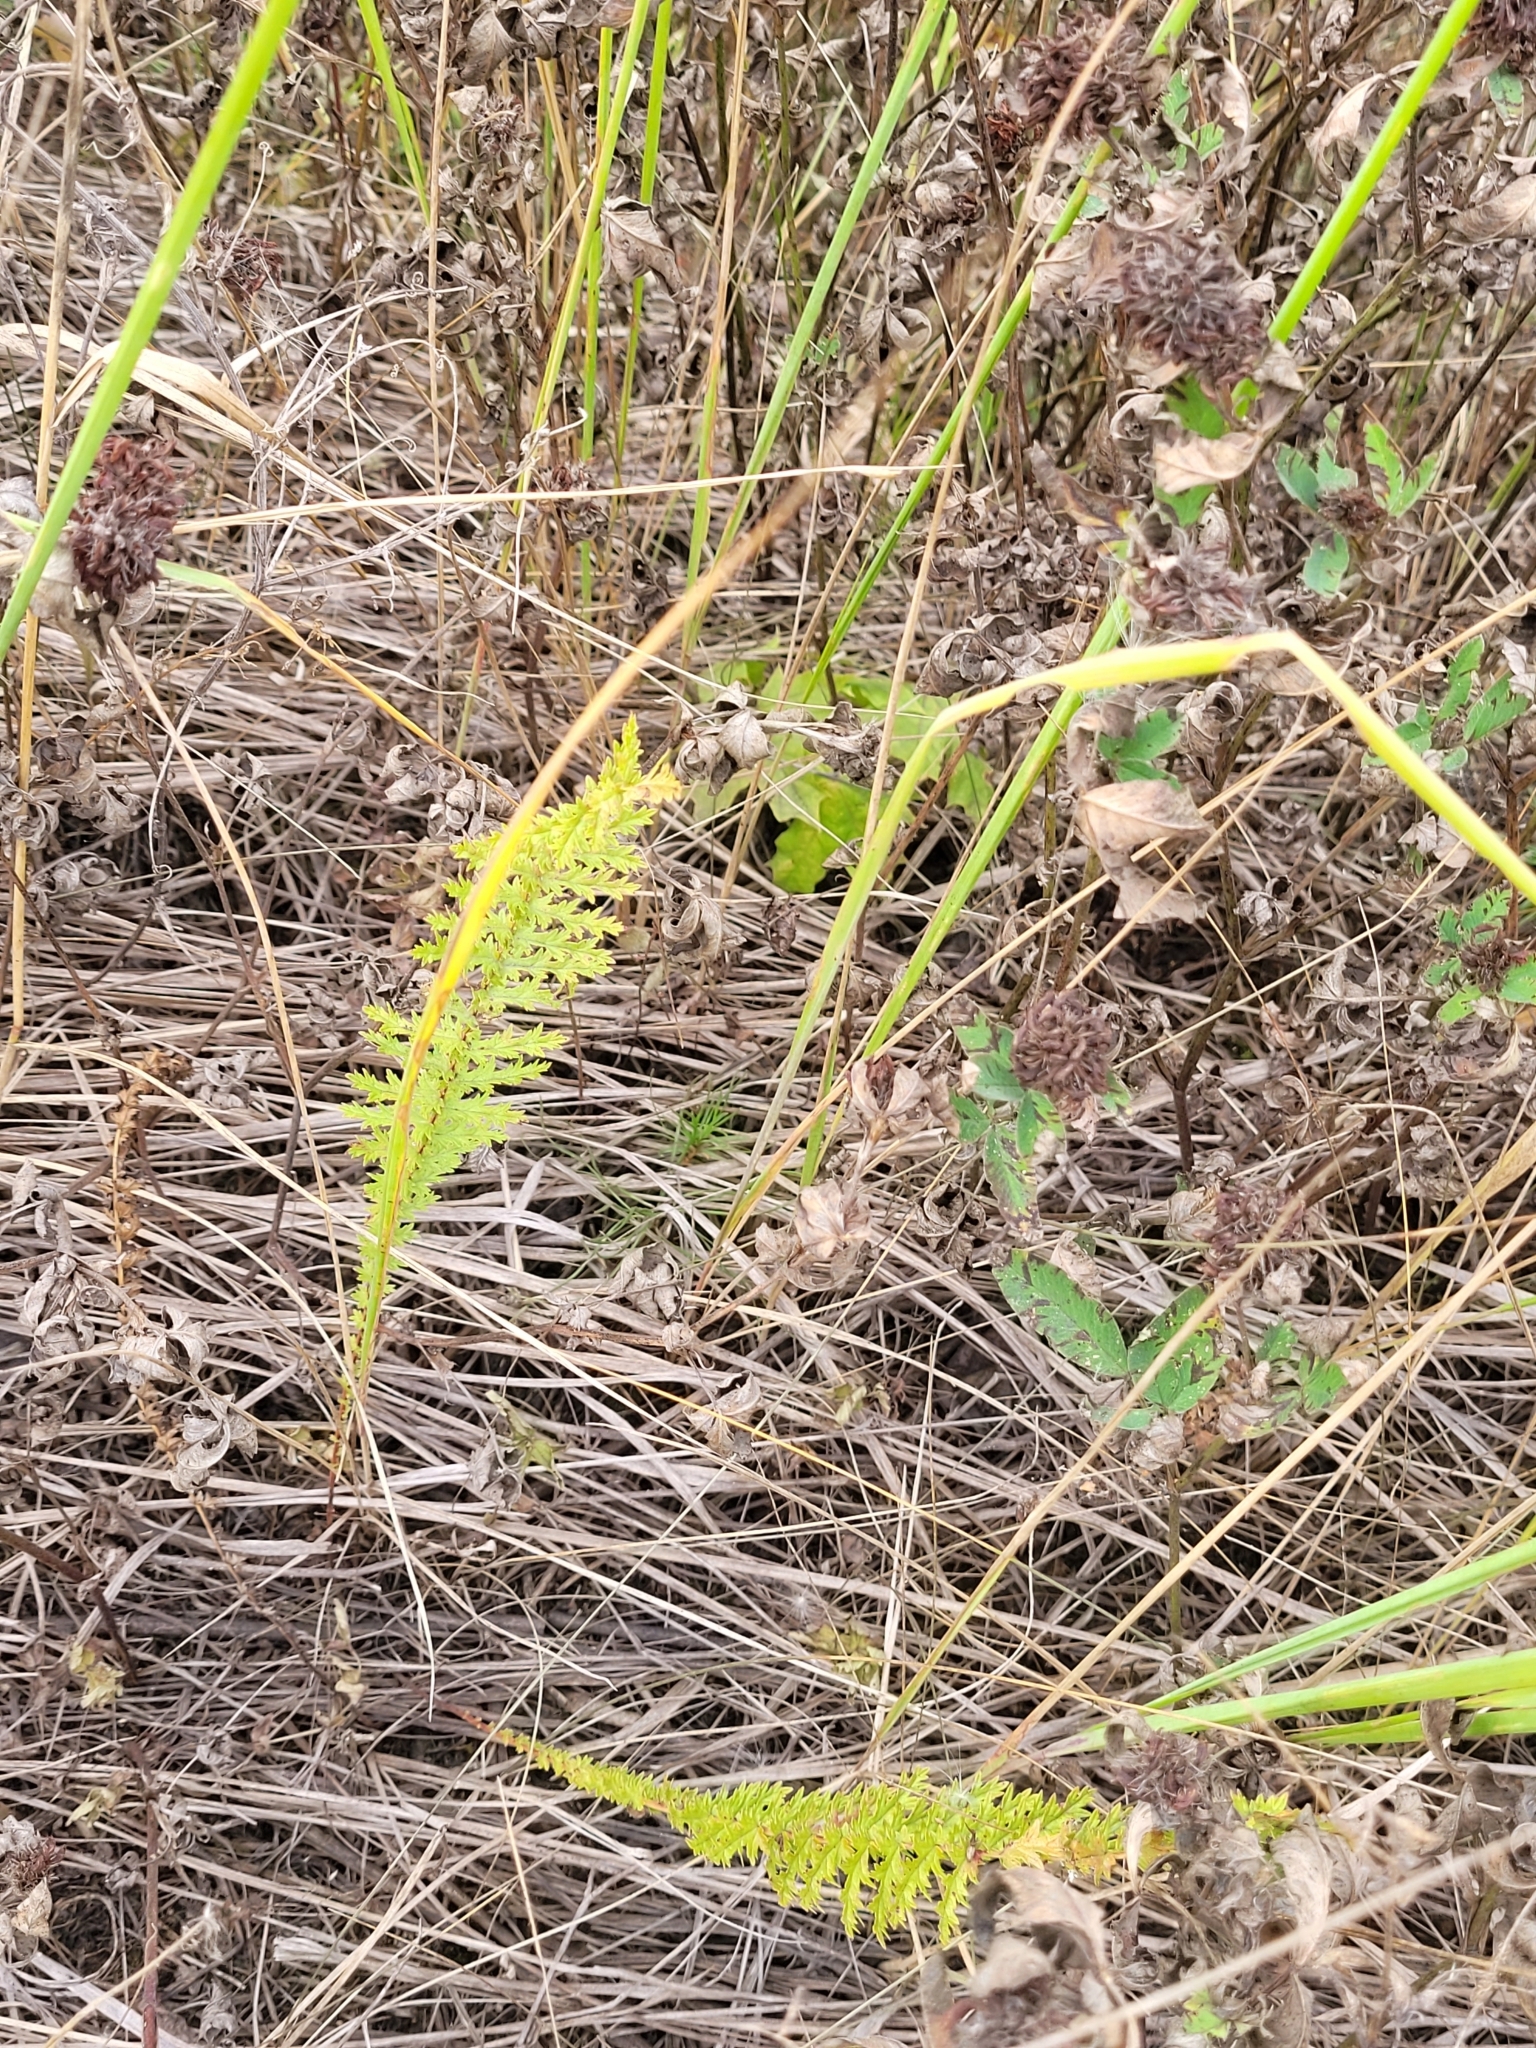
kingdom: Plantae
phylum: Tracheophyta
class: Magnoliopsida
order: Rosales
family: Rosaceae
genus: Filipendula
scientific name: Filipendula vulgaris
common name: Dropwort
